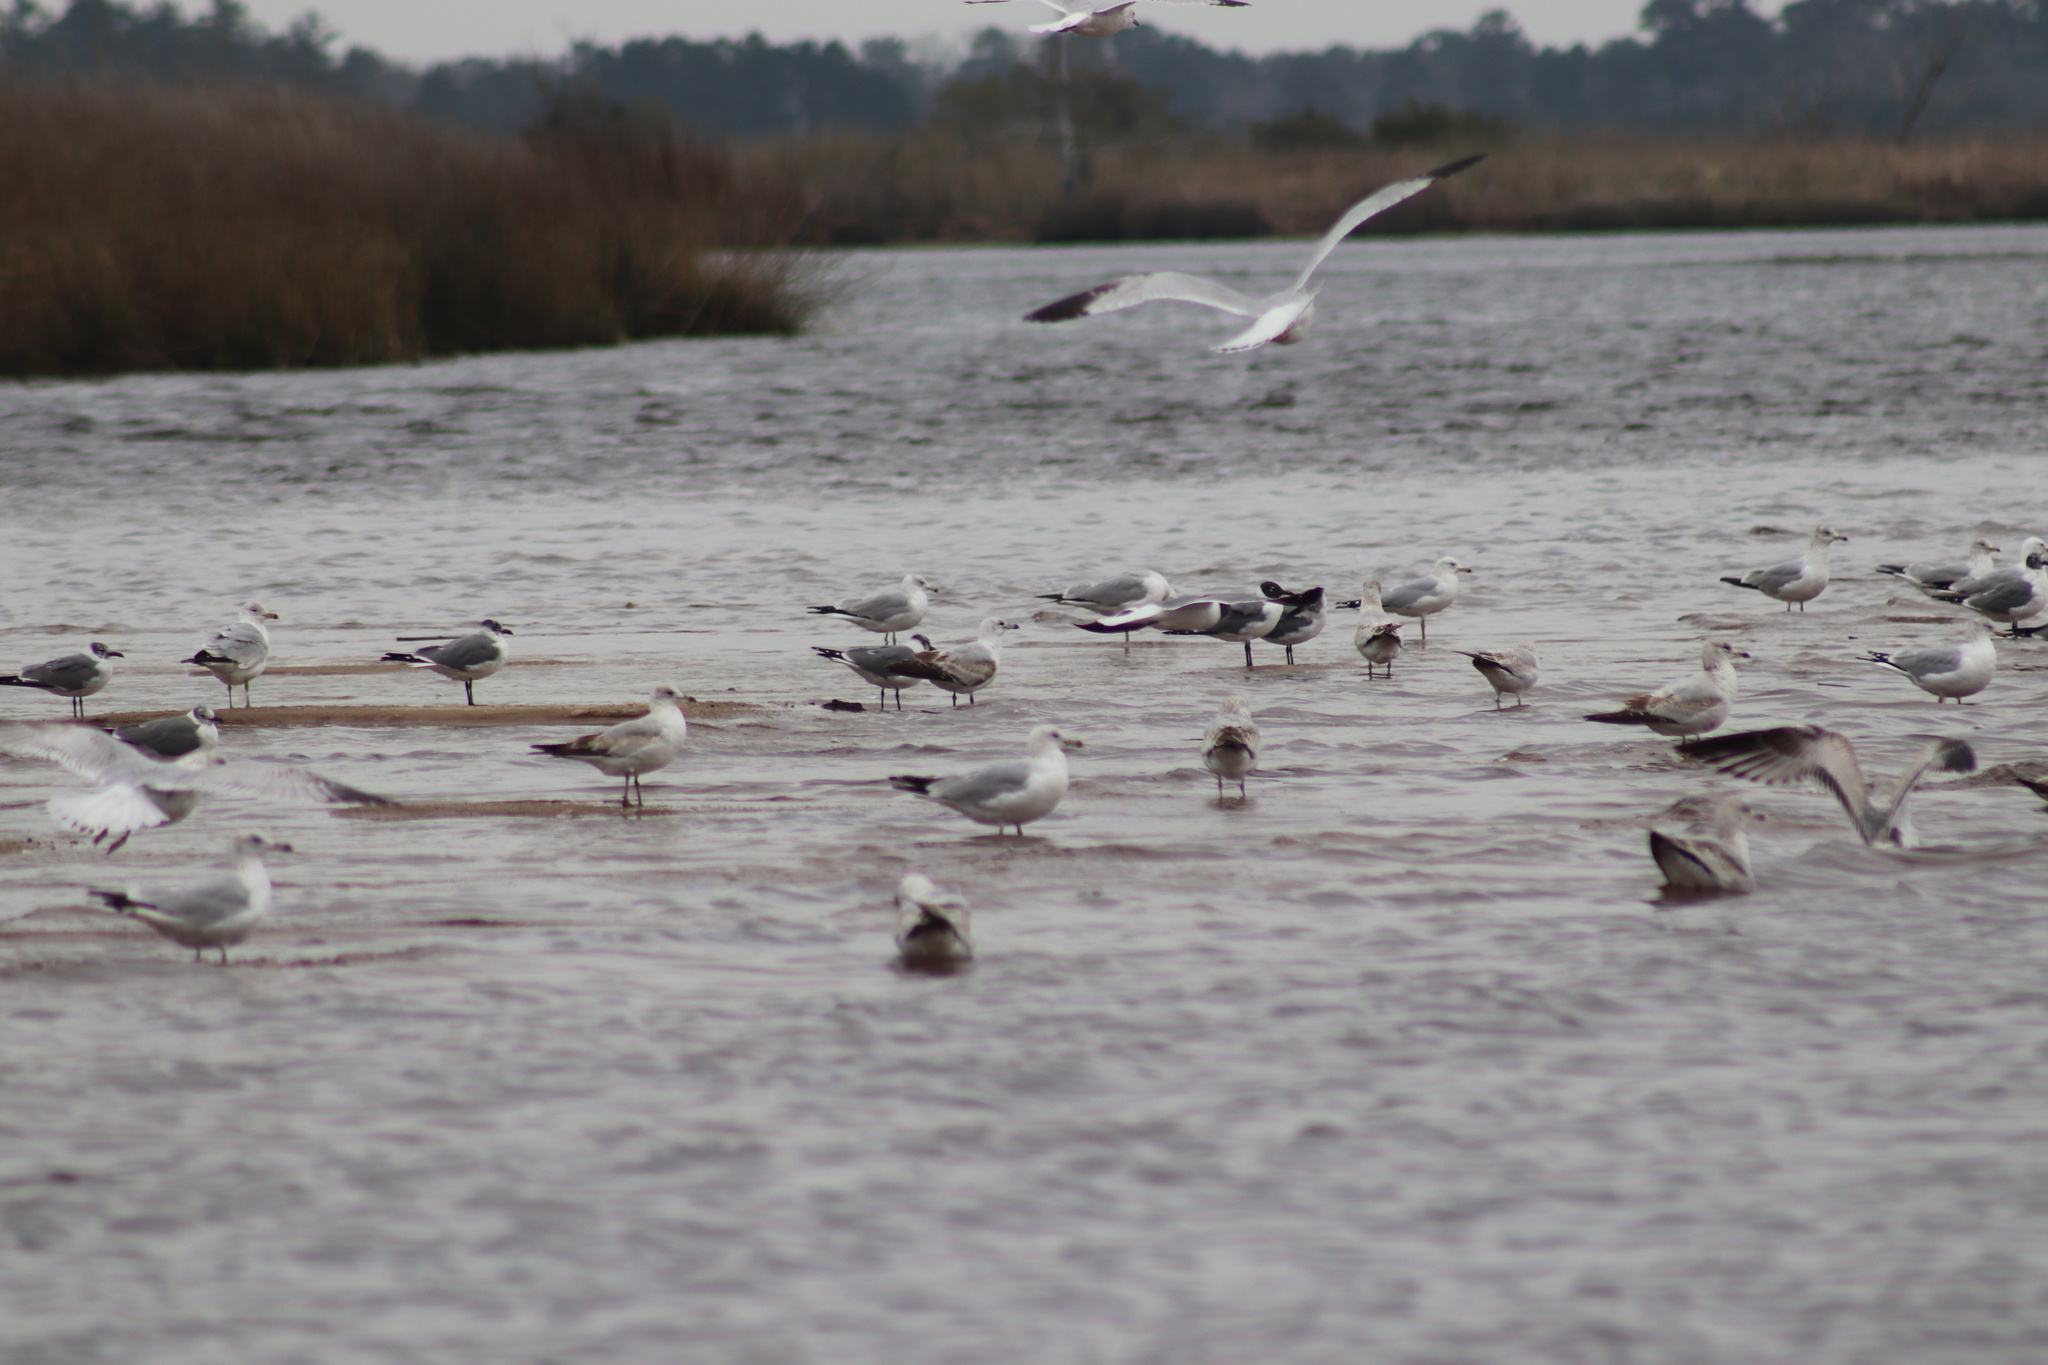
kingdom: Animalia
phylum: Chordata
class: Aves
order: Charadriiformes
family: Laridae
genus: Larus
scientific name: Larus delawarensis
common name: Ring-billed gull
